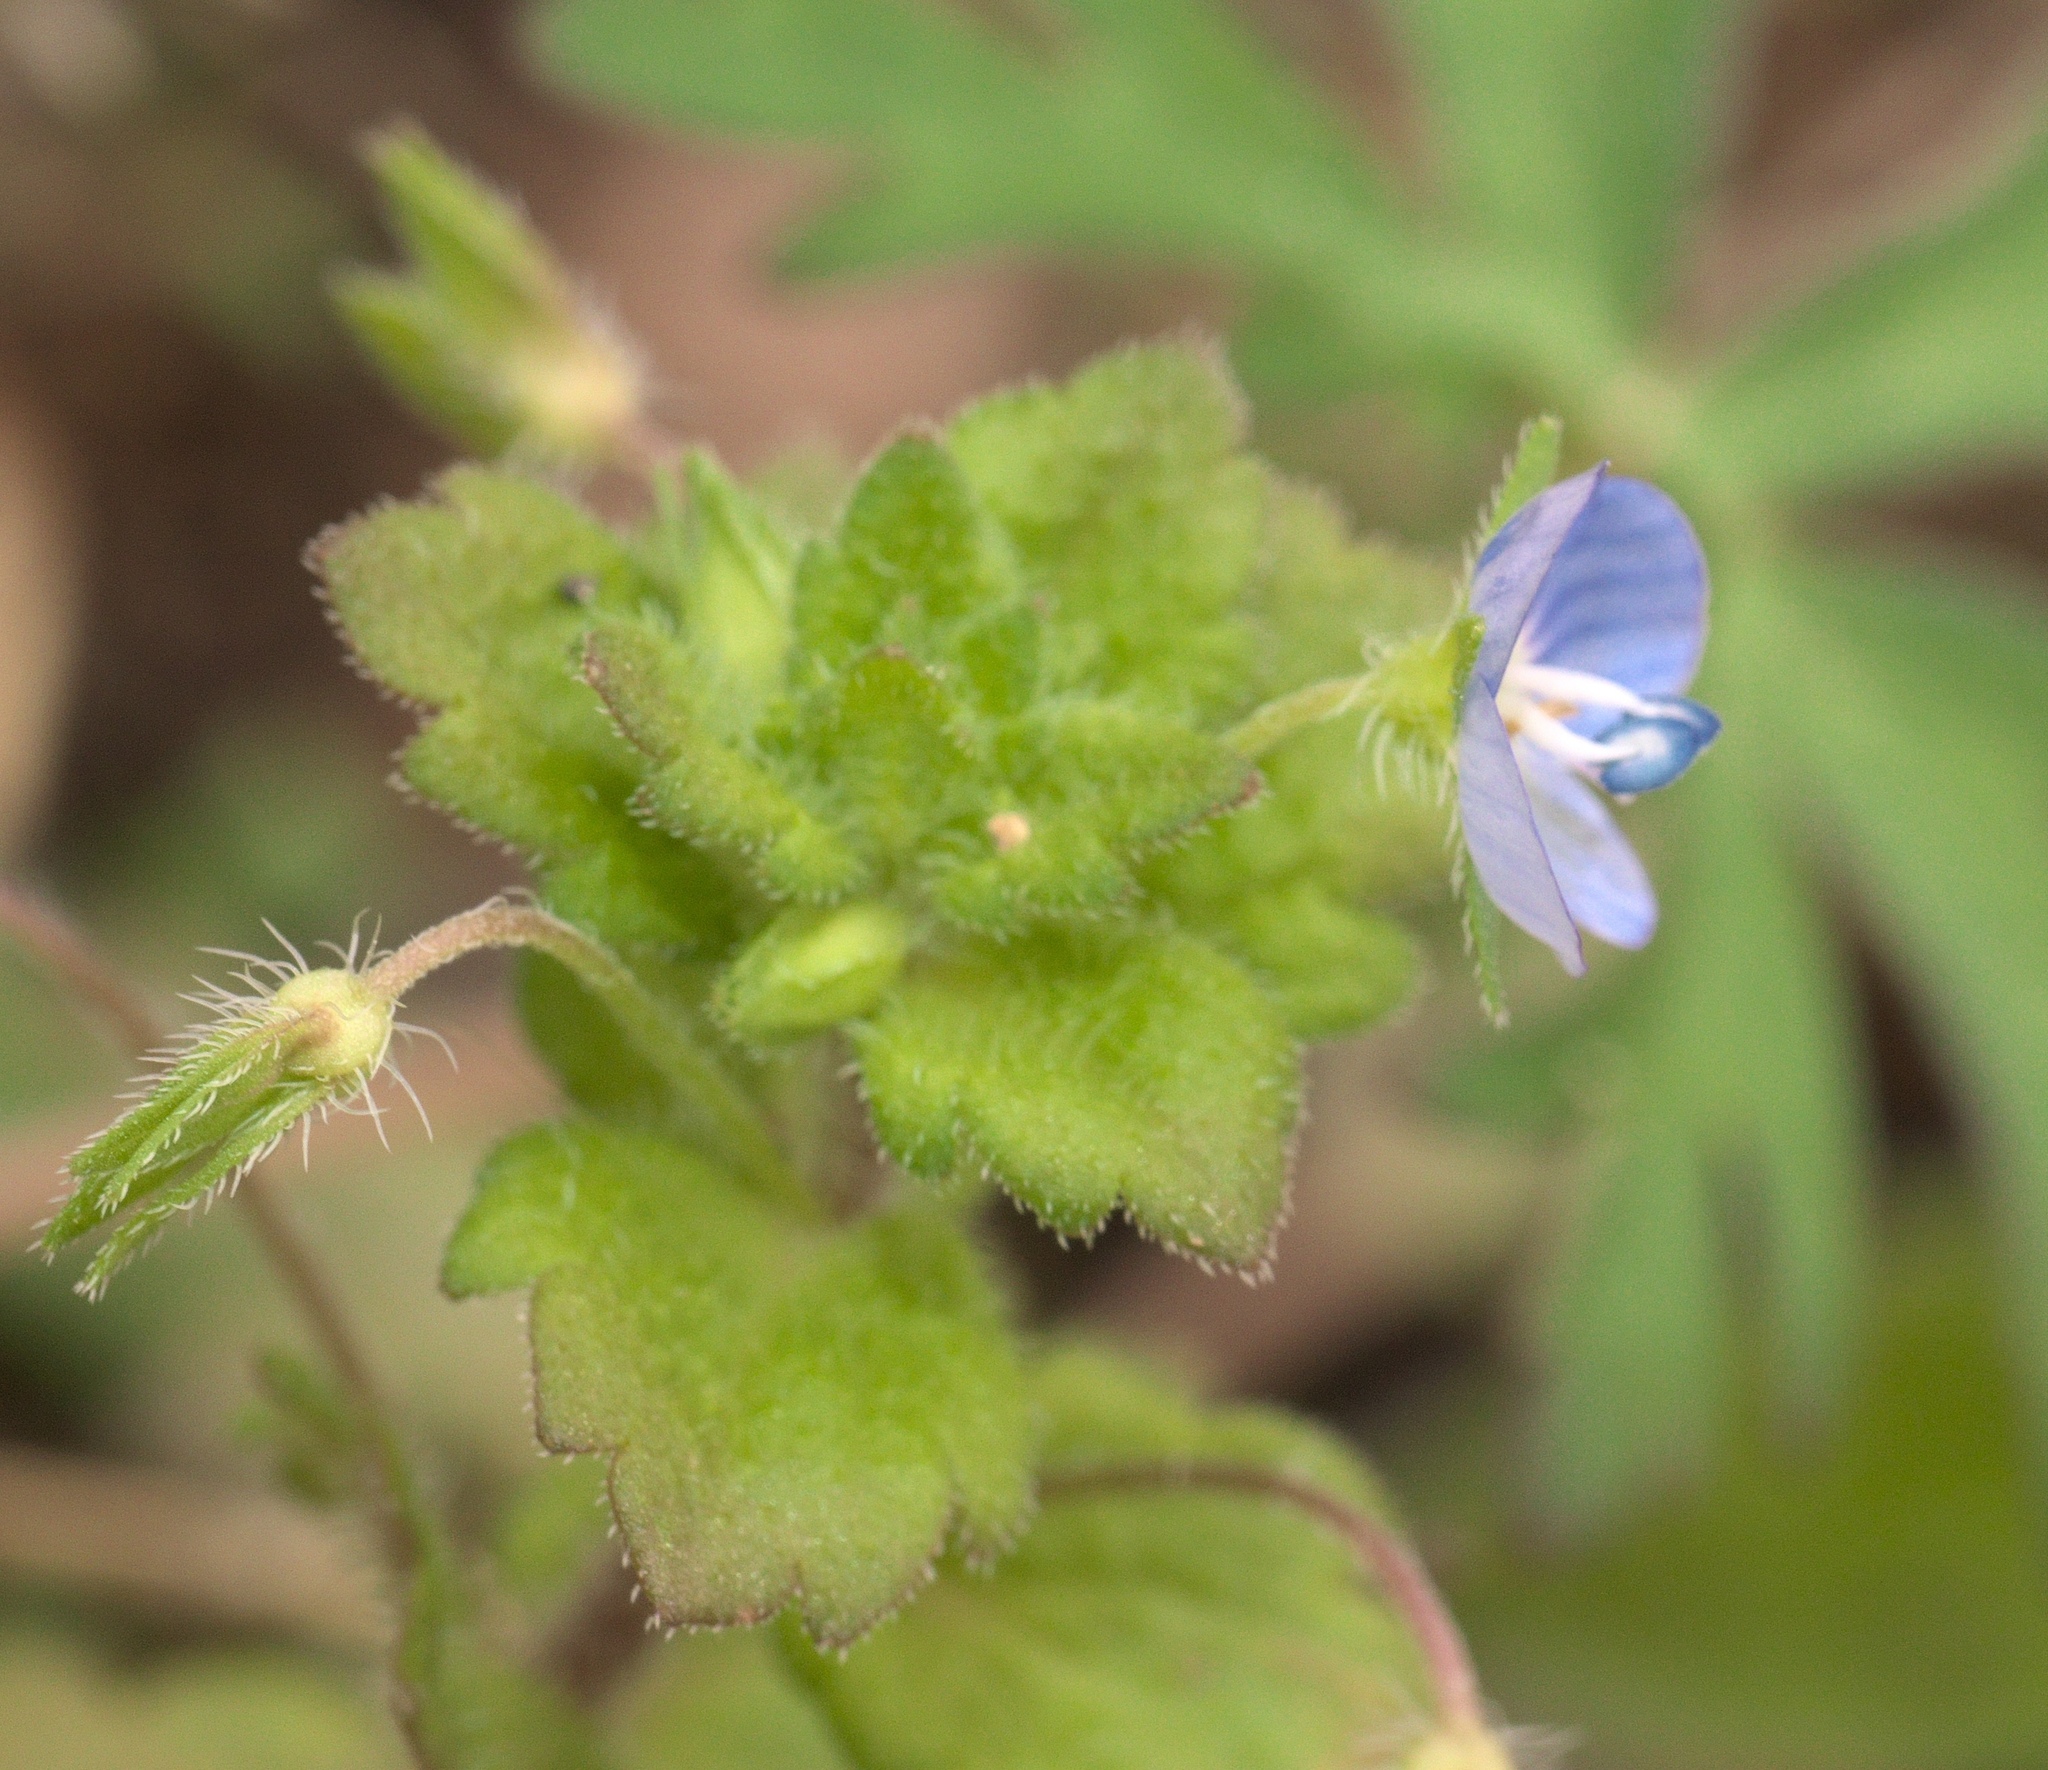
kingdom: Plantae
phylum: Tracheophyta
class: Magnoliopsida
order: Lamiales
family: Plantaginaceae
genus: Veronica
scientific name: Veronica persica
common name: Common field-speedwell
